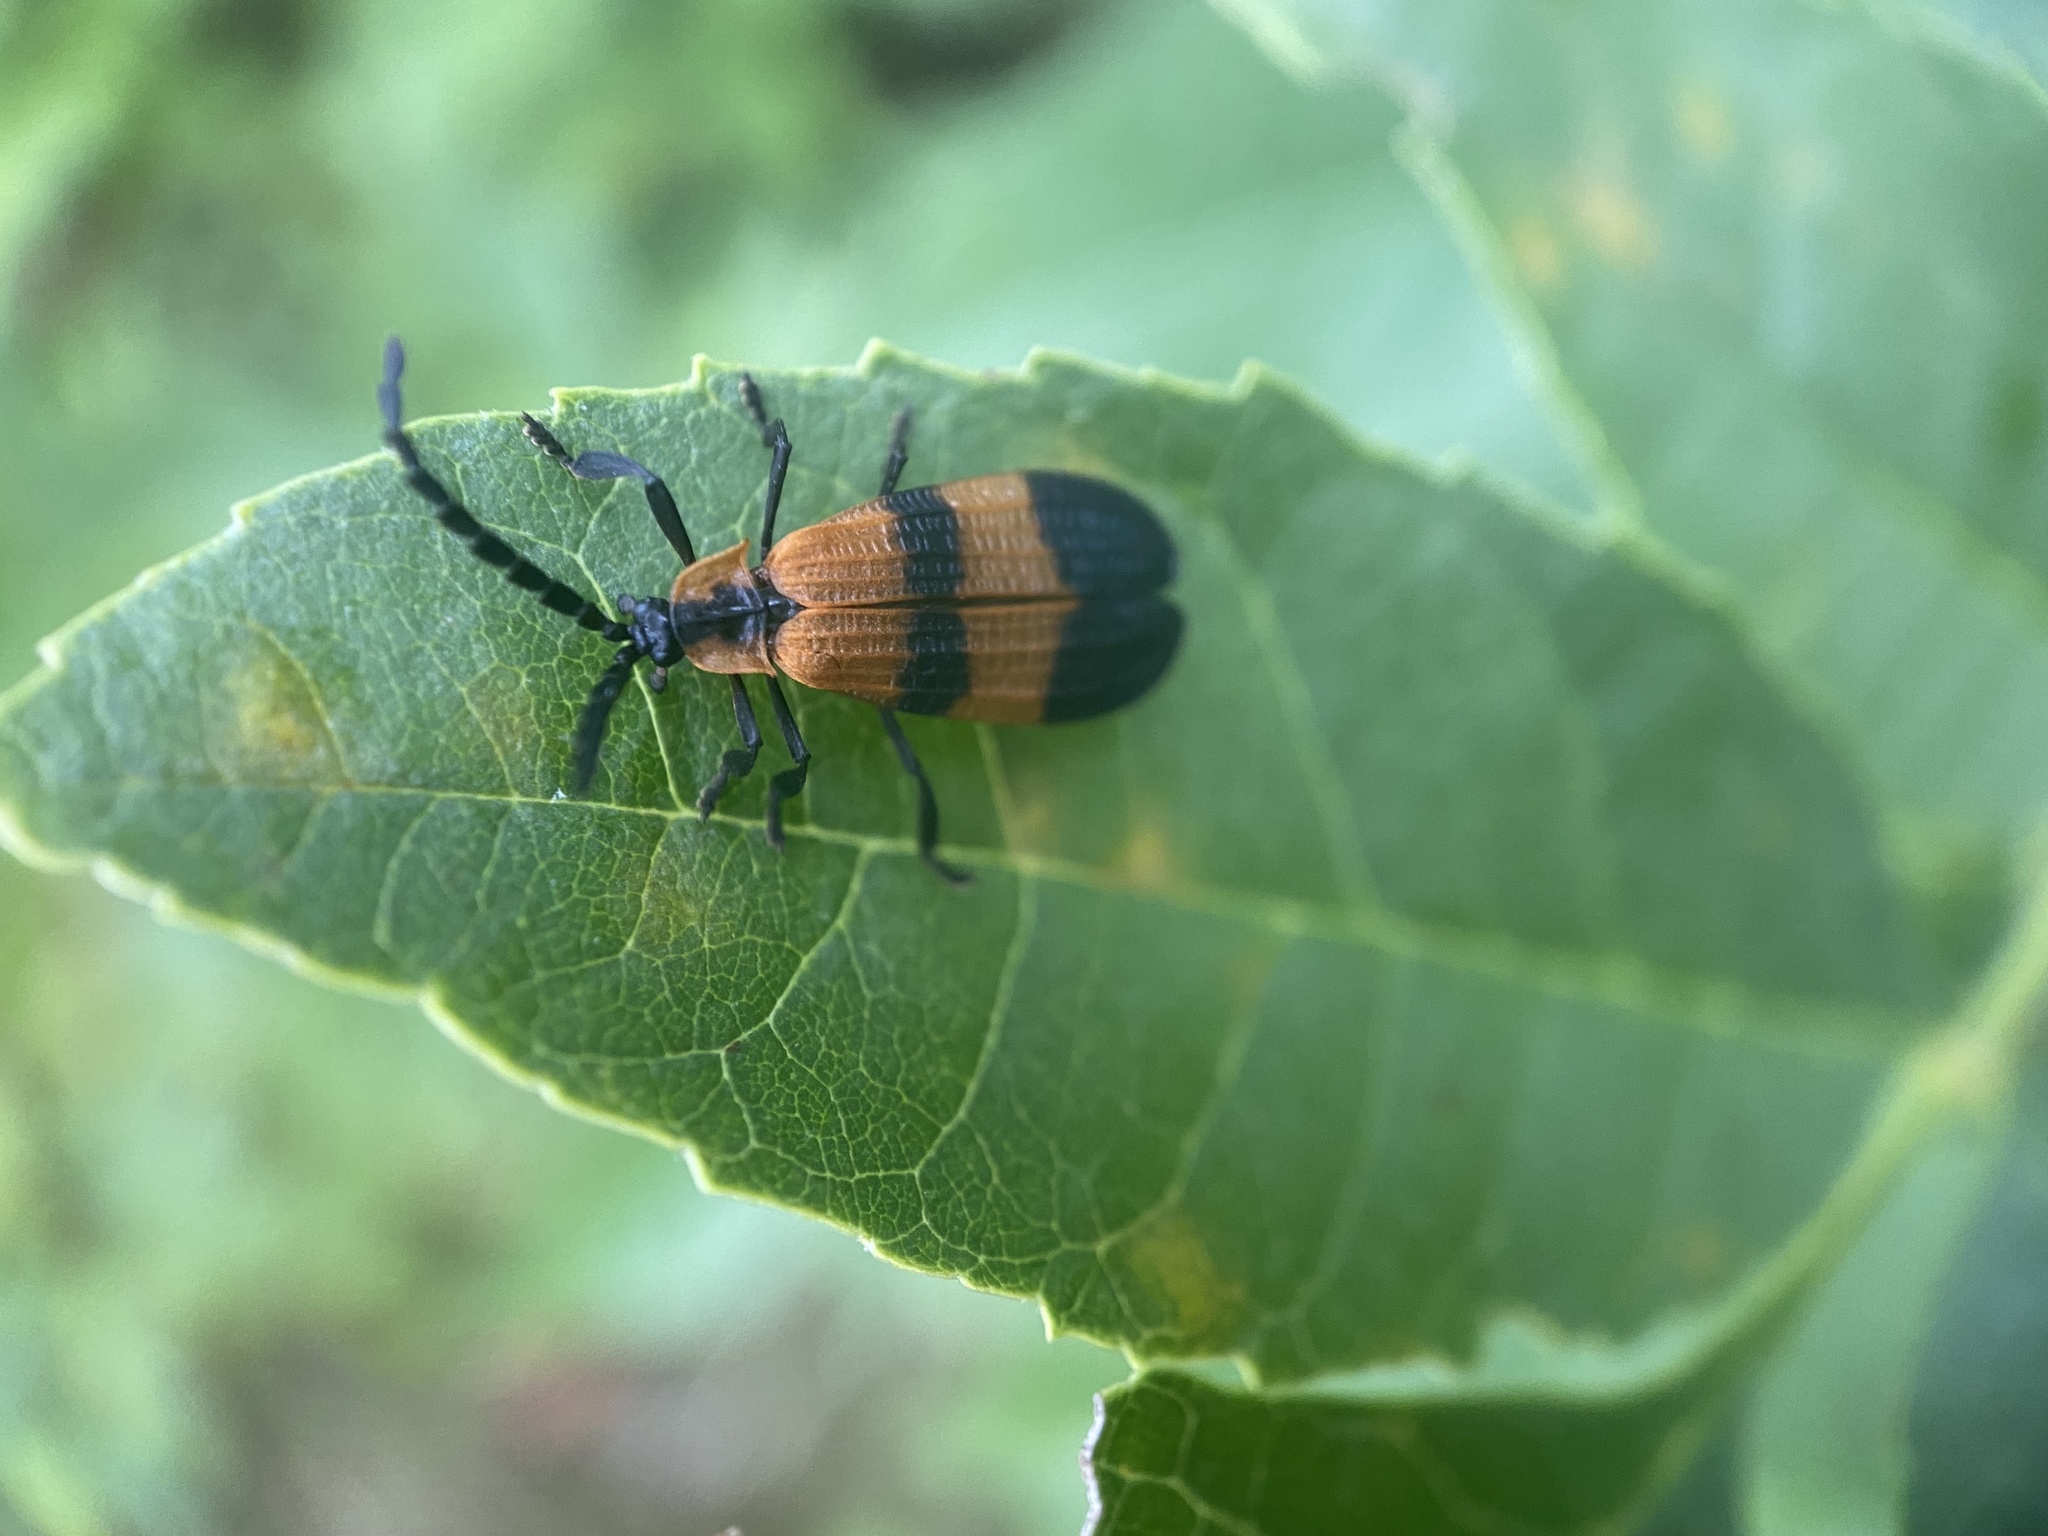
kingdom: Animalia
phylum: Arthropoda
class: Insecta
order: Coleoptera
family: Lycidae
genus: Calopteron
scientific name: Calopteron reticulatum
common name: Banded net-winged beetle
